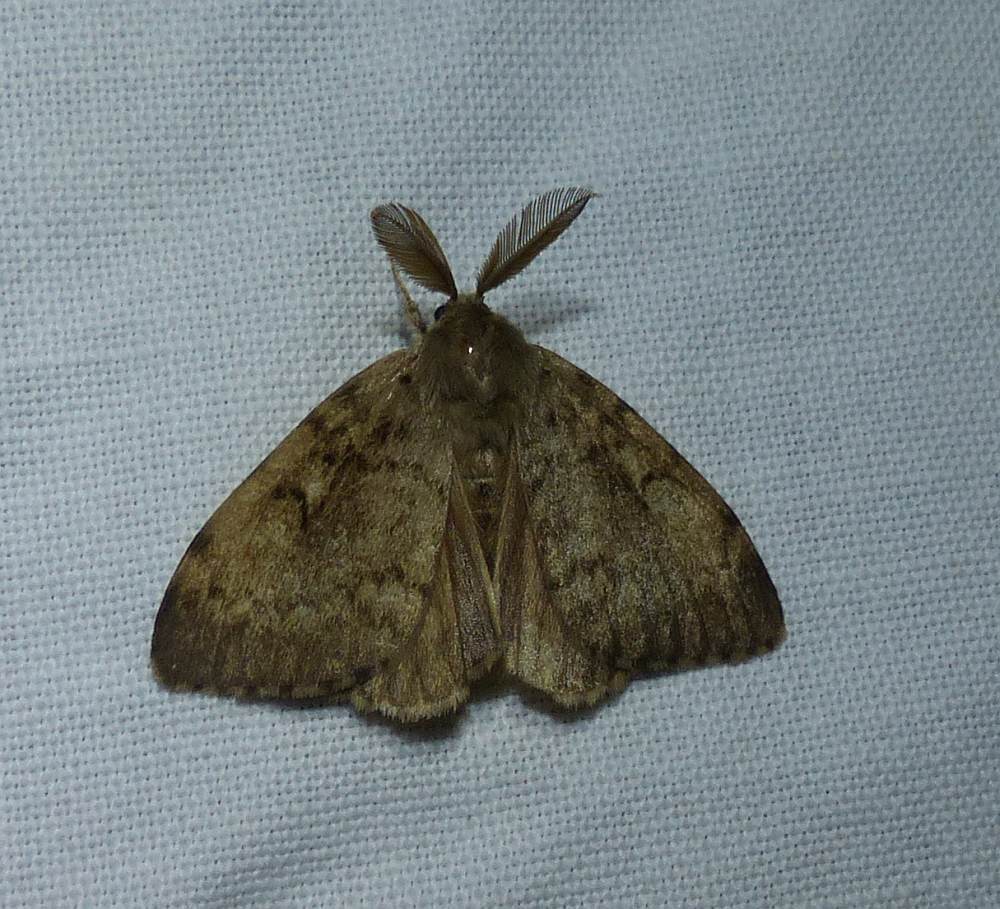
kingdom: Animalia
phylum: Arthropoda
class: Insecta
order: Lepidoptera
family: Erebidae
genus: Lymantria
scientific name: Lymantria dispar
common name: Gypsy moth
